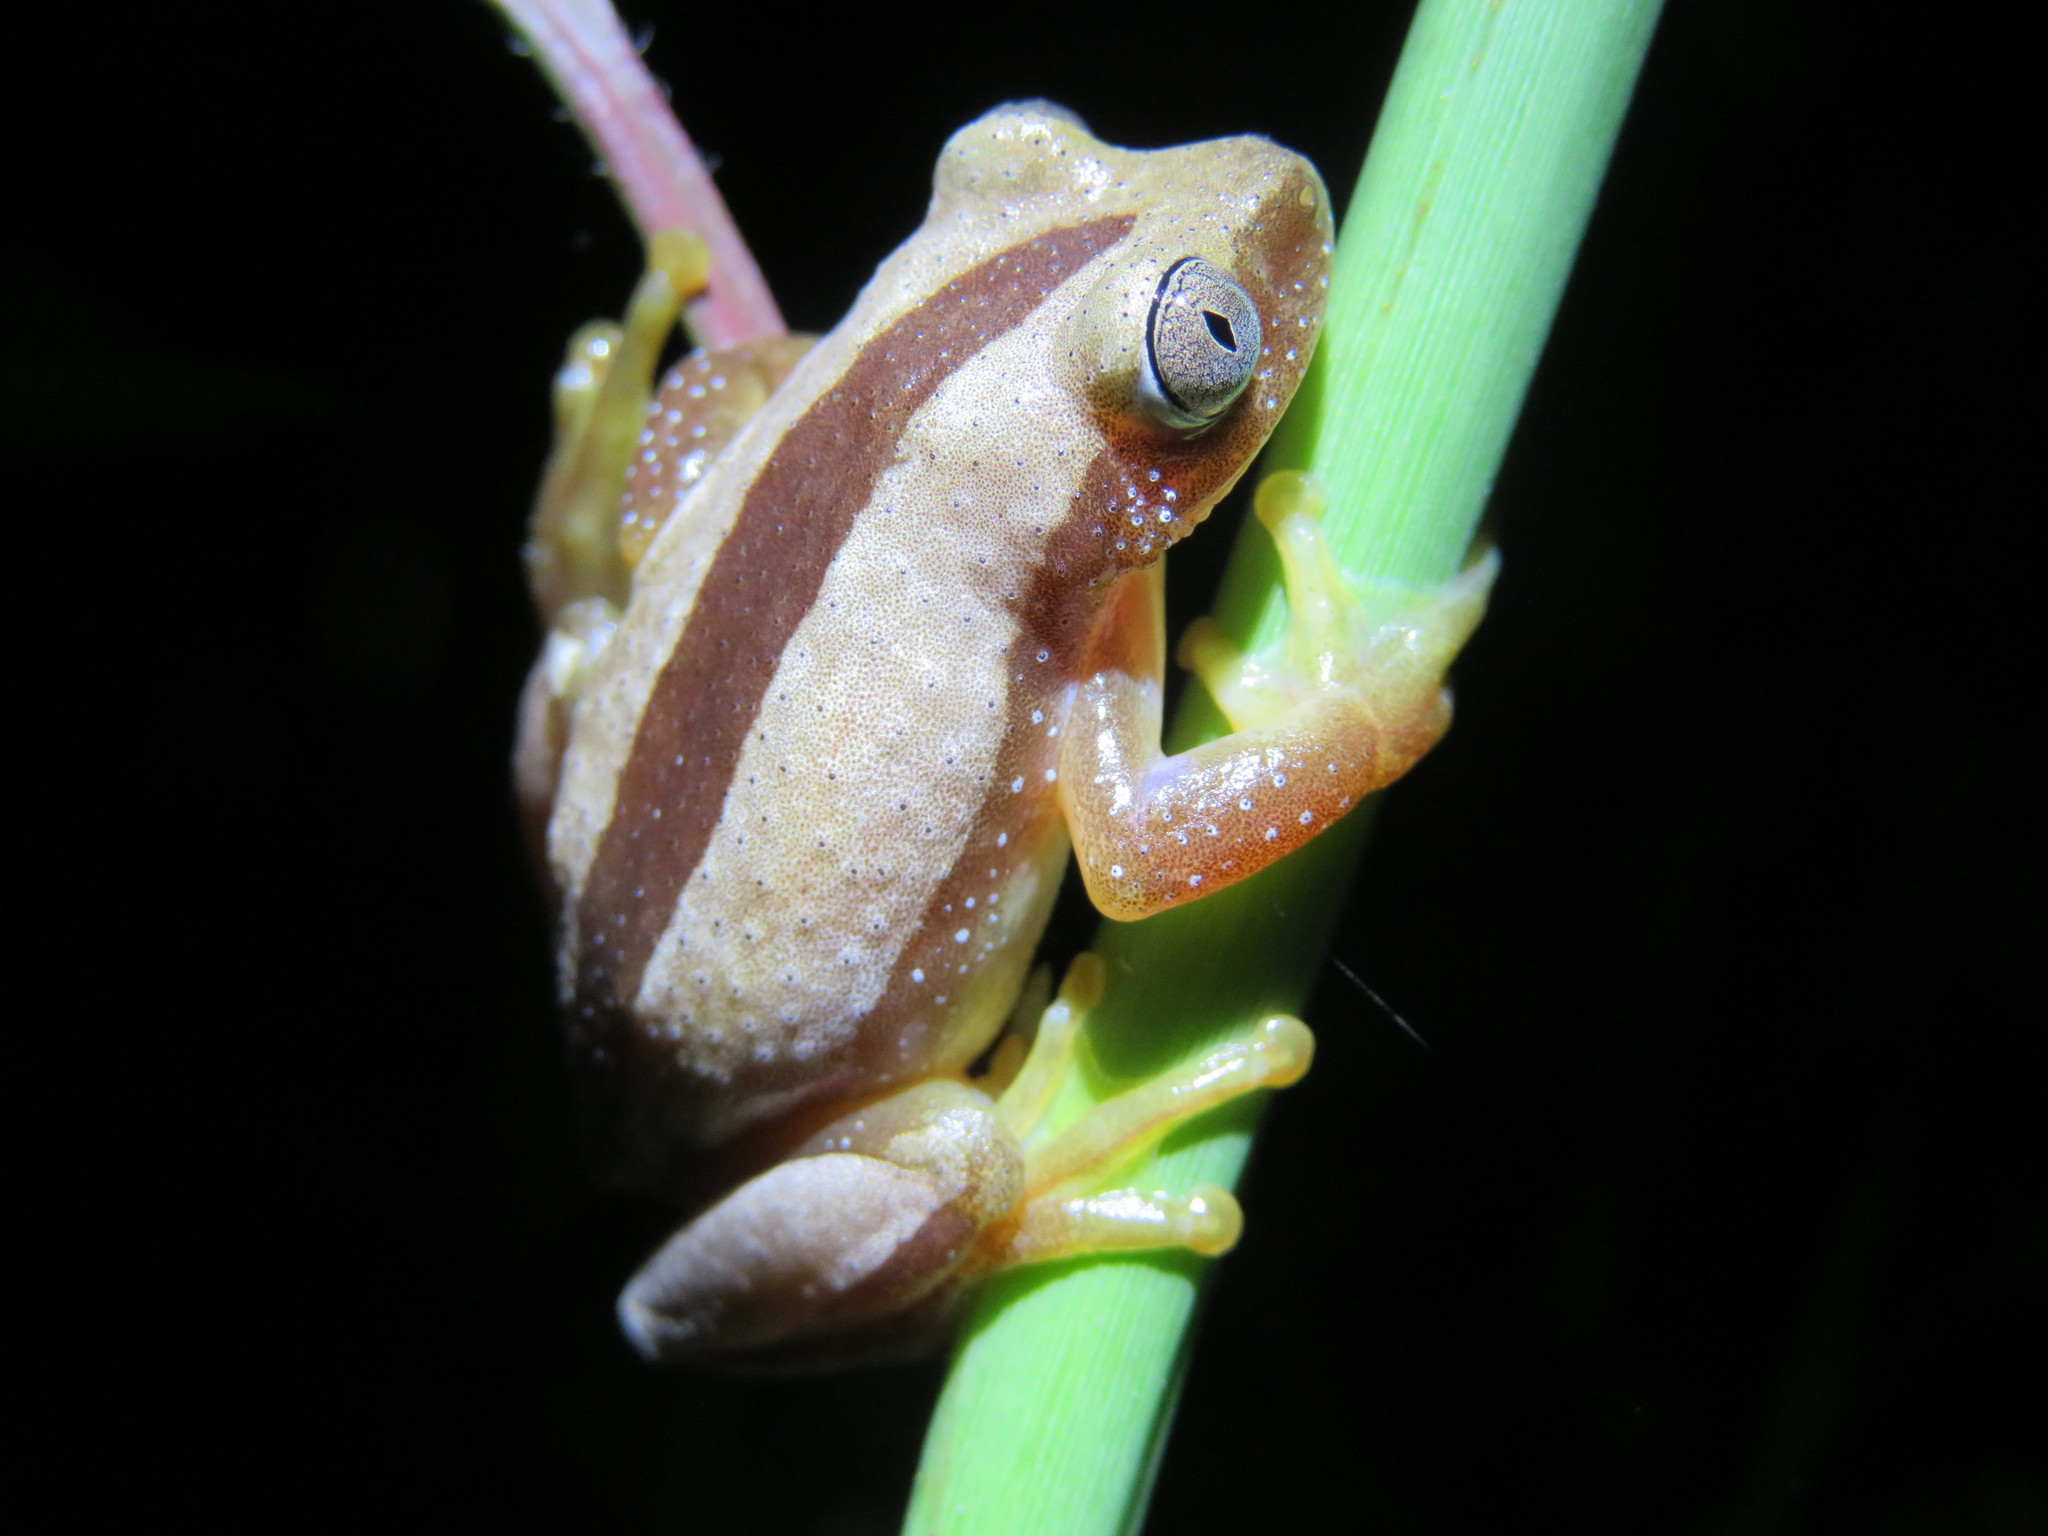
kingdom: Animalia
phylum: Chordata
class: Amphibia
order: Anura
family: Hyperoliidae
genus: Afrixalus
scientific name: Afrixalus fornasini
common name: Fornasini's spiny reed frog
